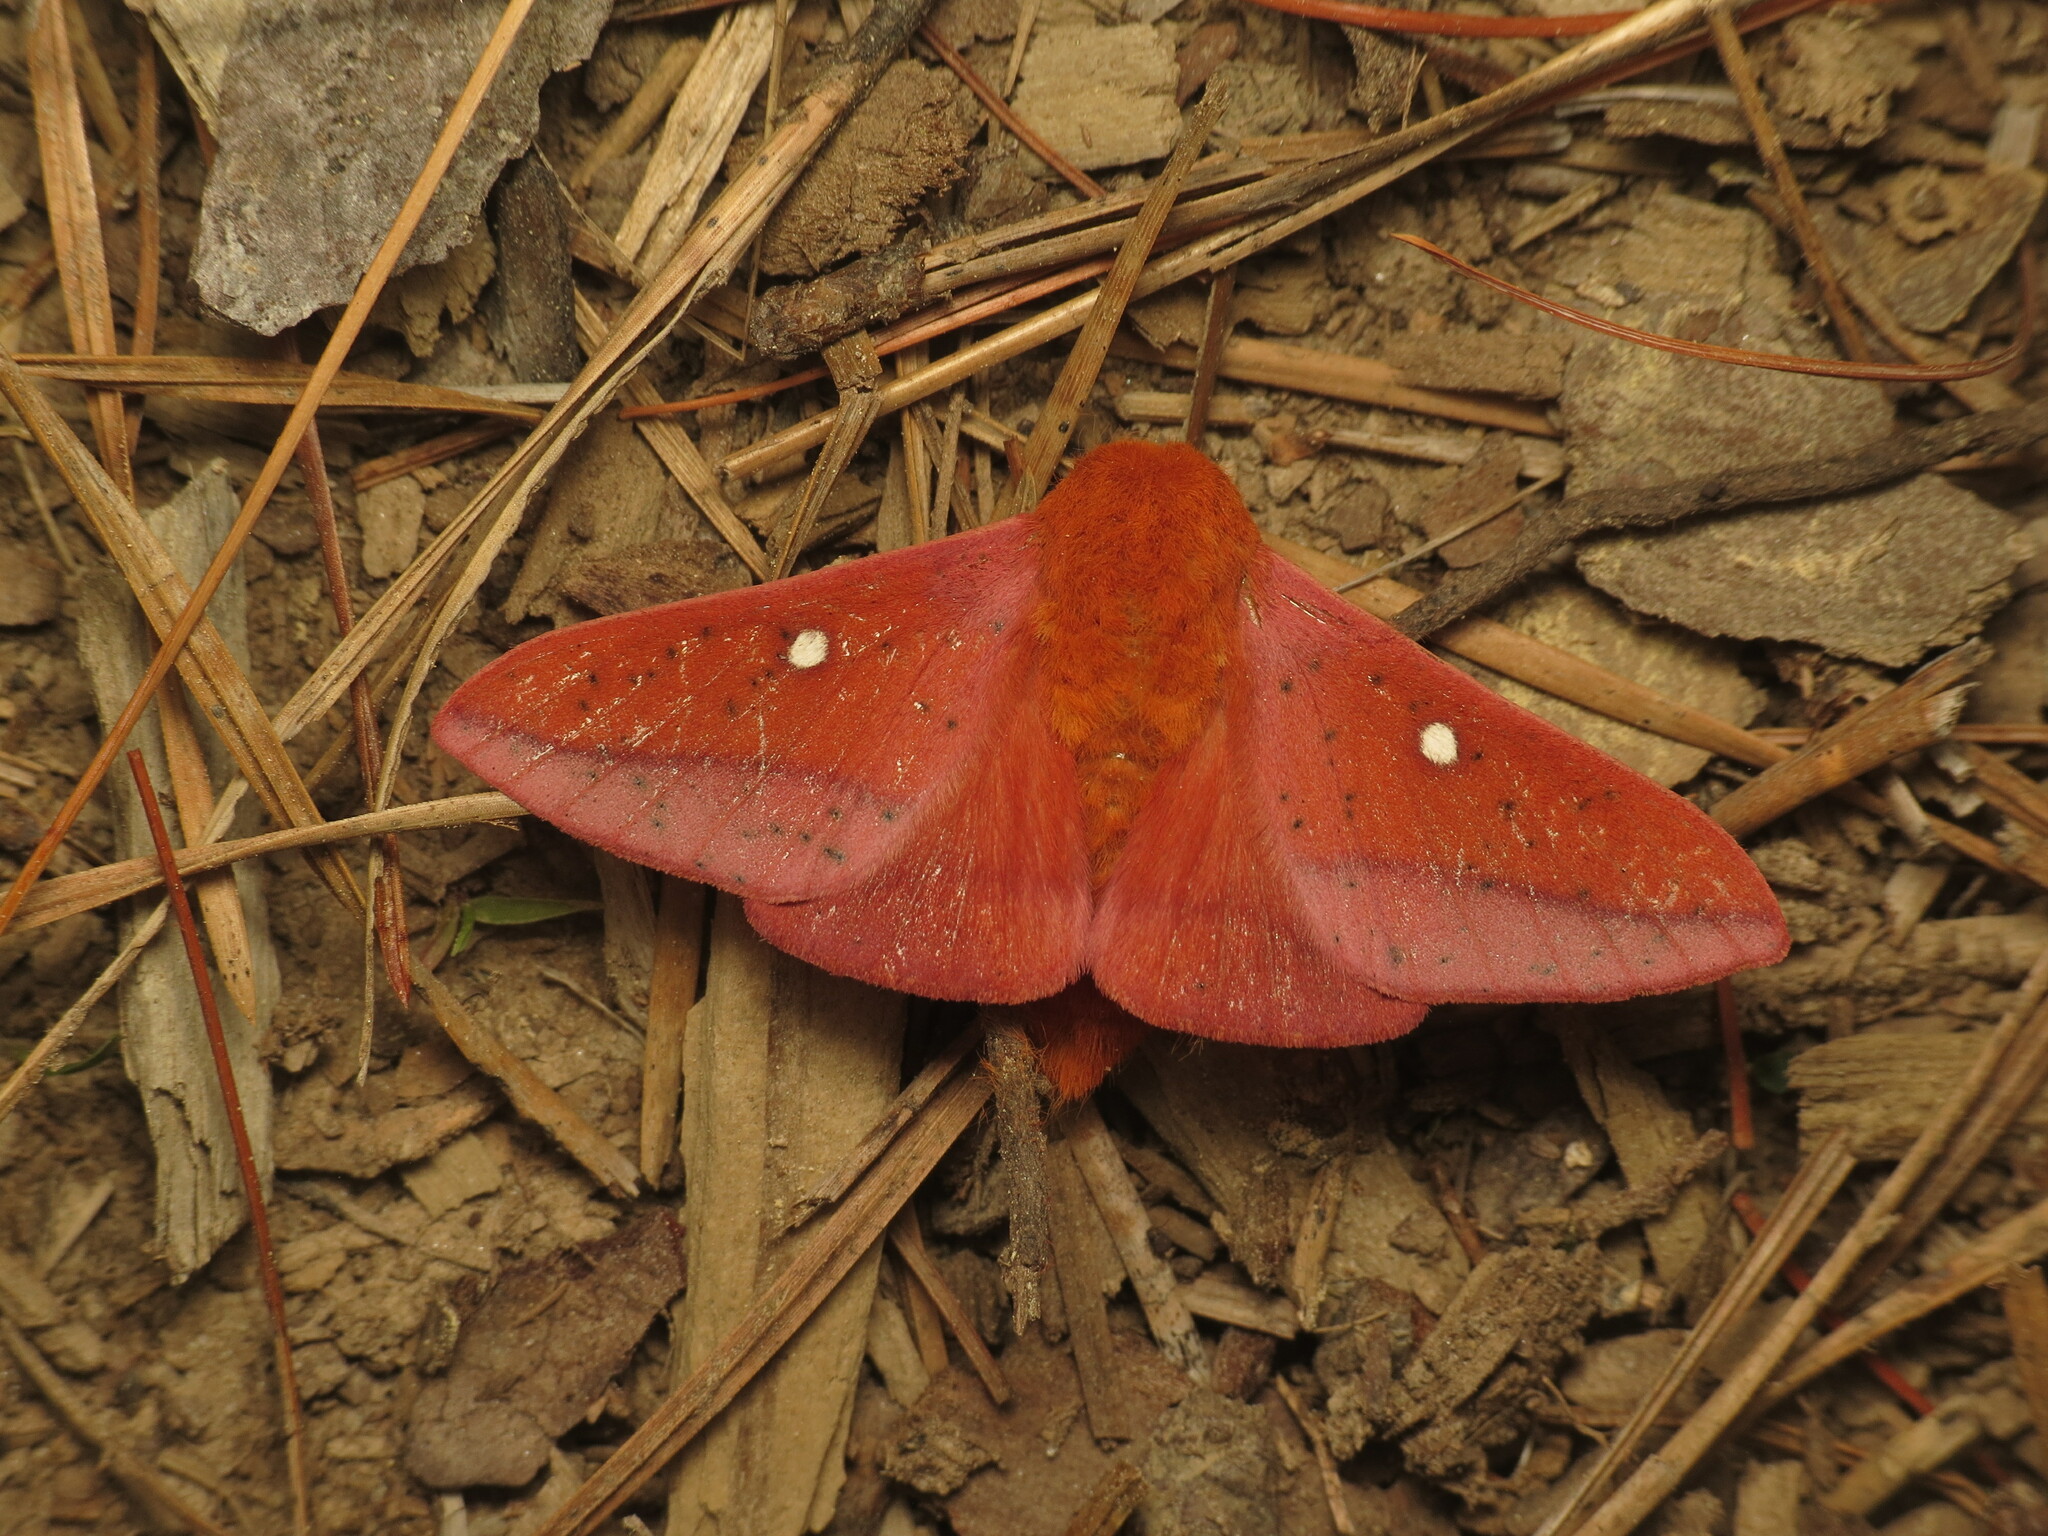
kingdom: Animalia
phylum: Arthropoda
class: Insecta
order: Lepidoptera
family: Saturniidae
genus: Anisota
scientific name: Anisota stigma
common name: Spiny oakworm moth
